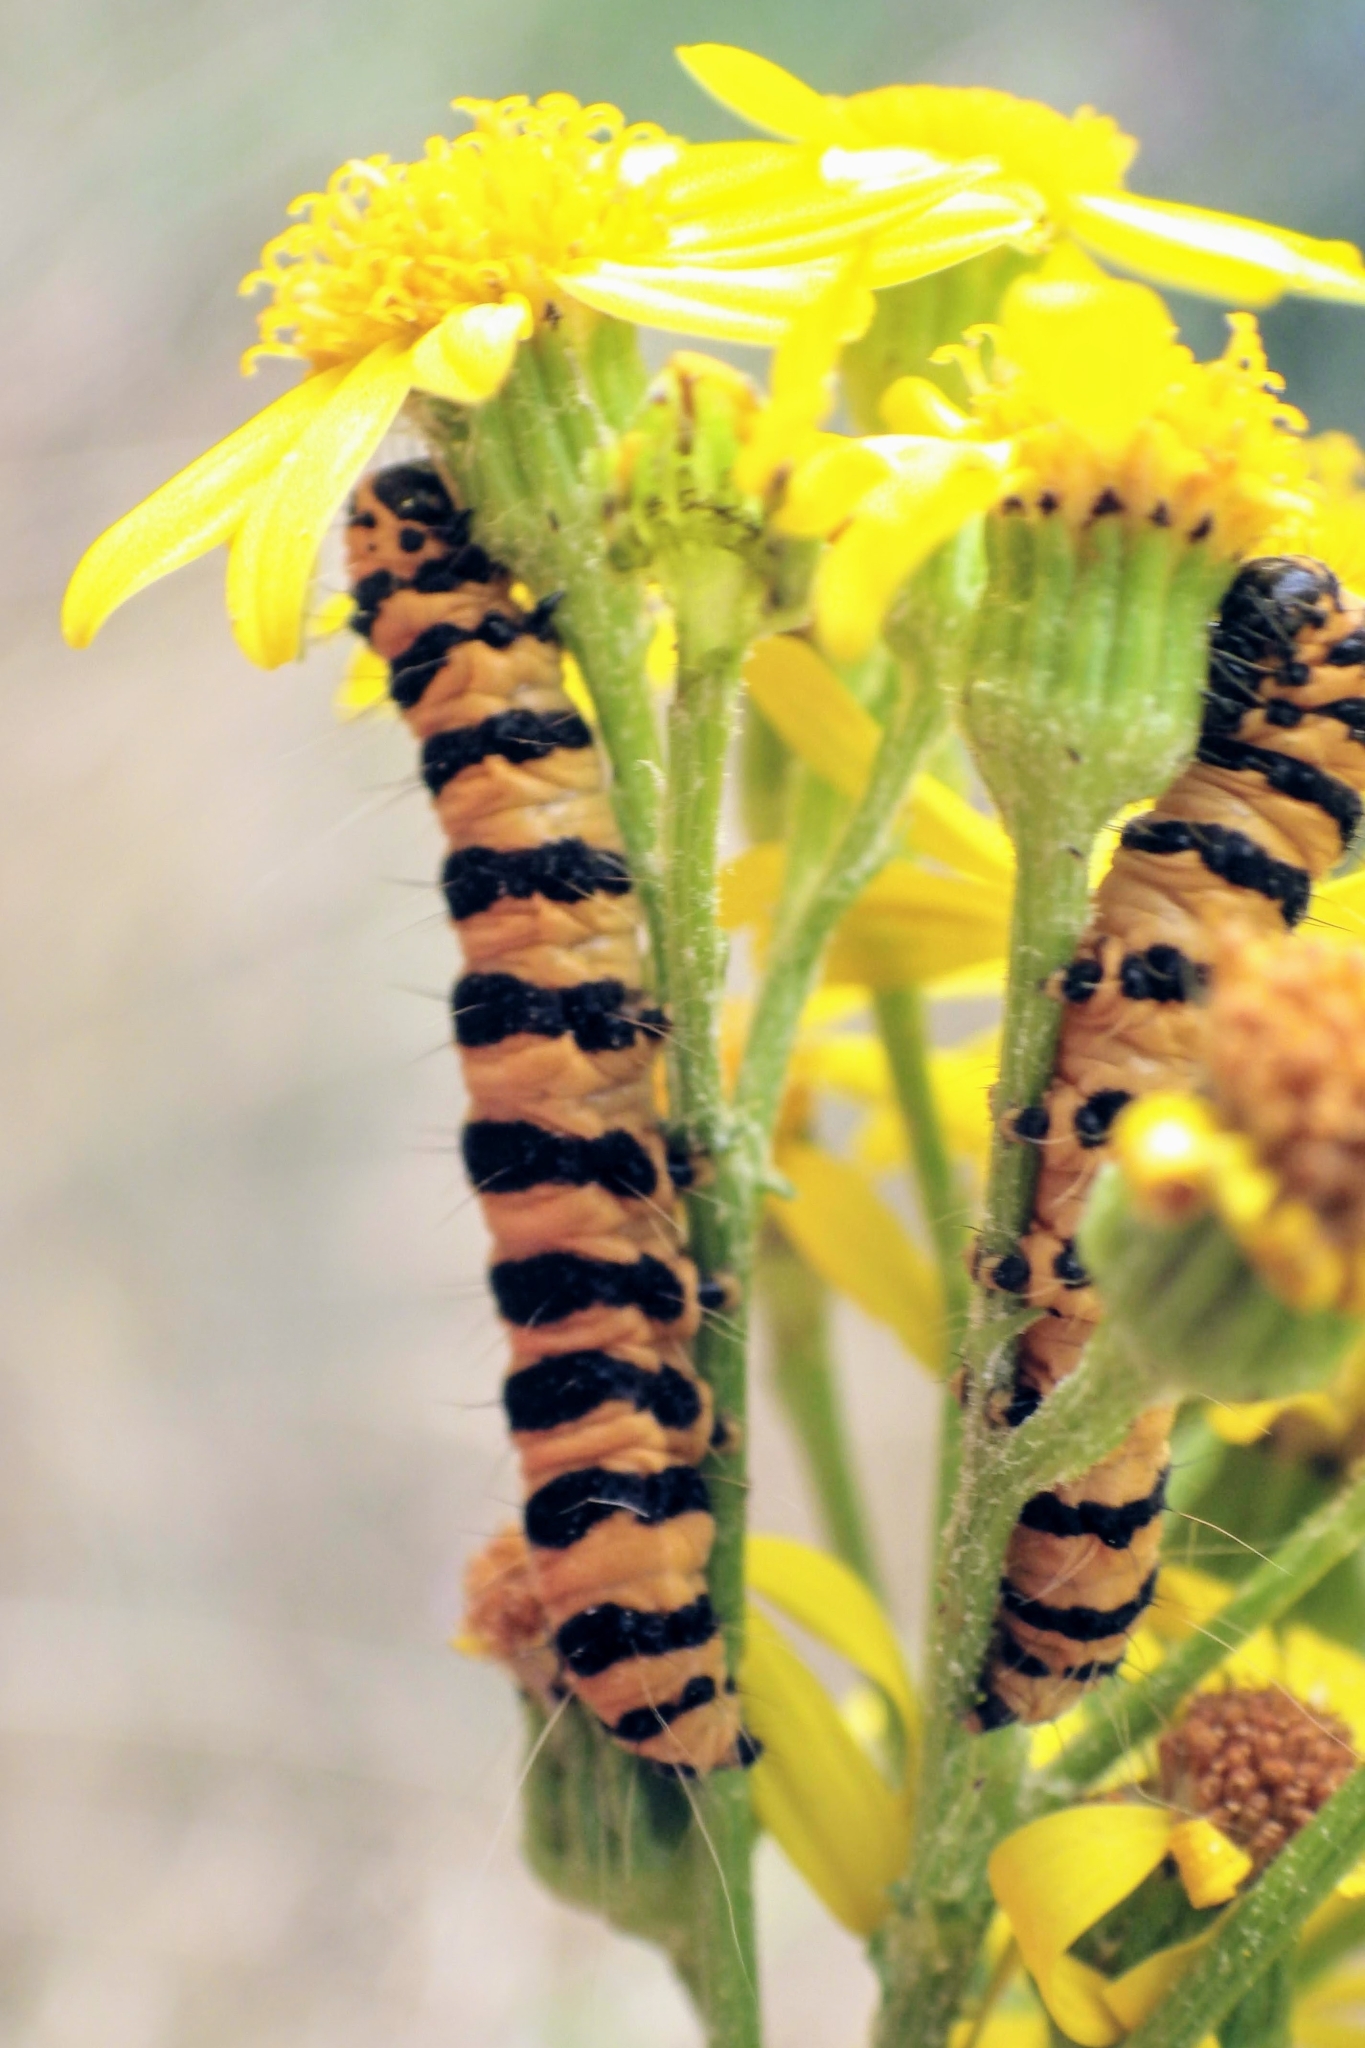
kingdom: Animalia
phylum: Arthropoda
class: Insecta
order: Lepidoptera
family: Erebidae
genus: Tyria
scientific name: Tyria jacobaeae
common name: Cinnabar
